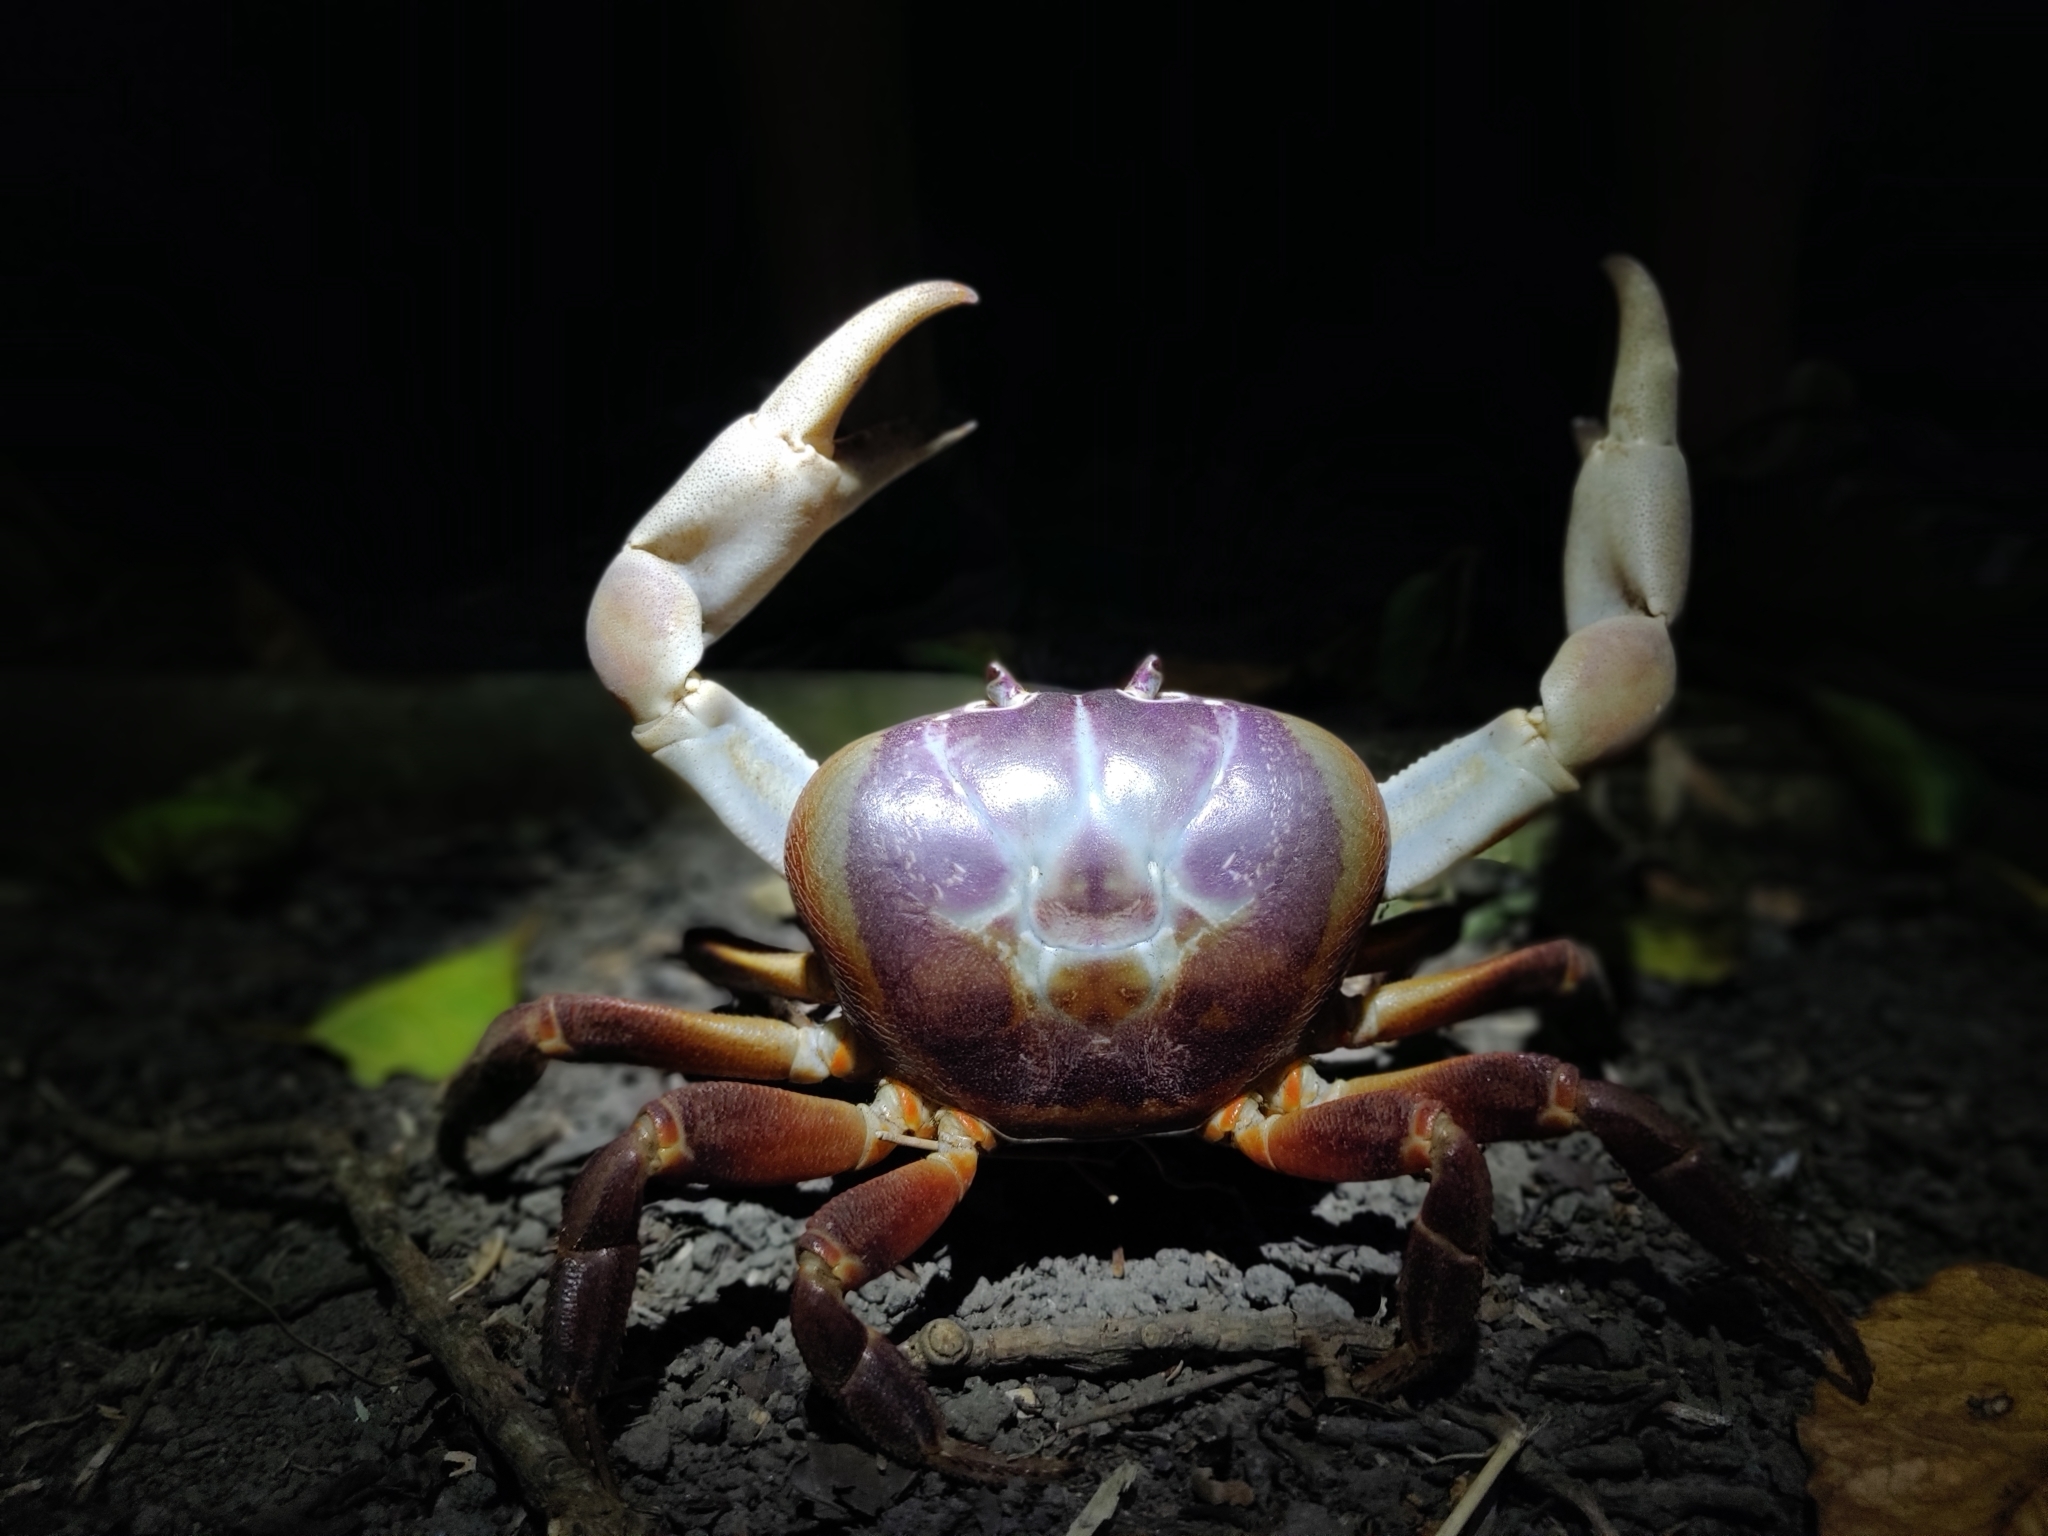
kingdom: Animalia
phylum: Arthropoda
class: Malacostraca
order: Decapoda
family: Gecarcinidae
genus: Gecarcoidea
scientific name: Gecarcoidea humei
